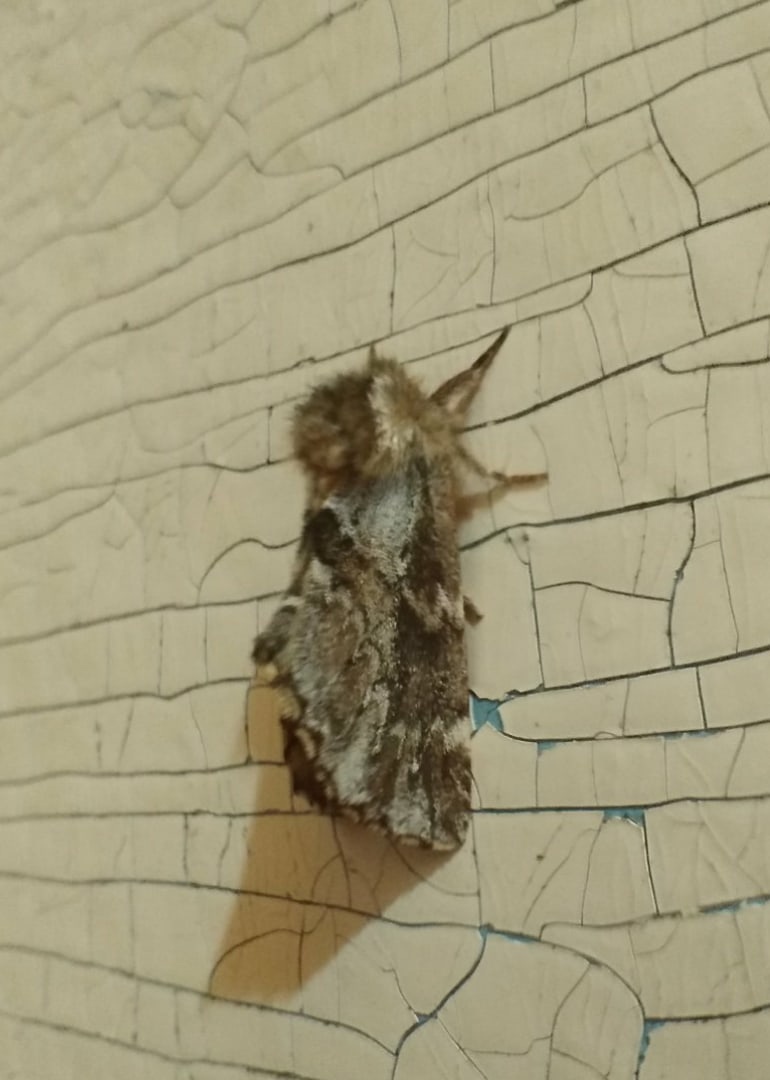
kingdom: Animalia
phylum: Arthropoda
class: Insecta
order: Lepidoptera
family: Notodontidae
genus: Odontosia
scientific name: Odontosia sieversii
